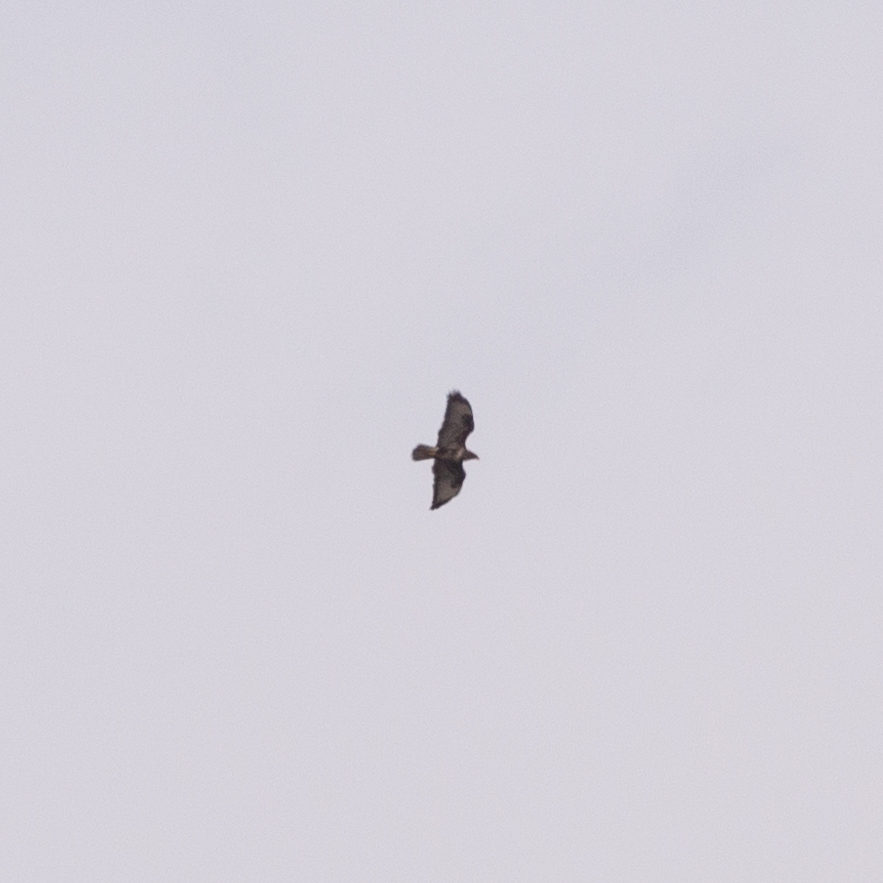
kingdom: Animalia
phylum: Chordata
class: Aves
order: Accipitriformes
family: Accipitridae
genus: Buteo
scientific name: Buteo buteo
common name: Common buzzard
